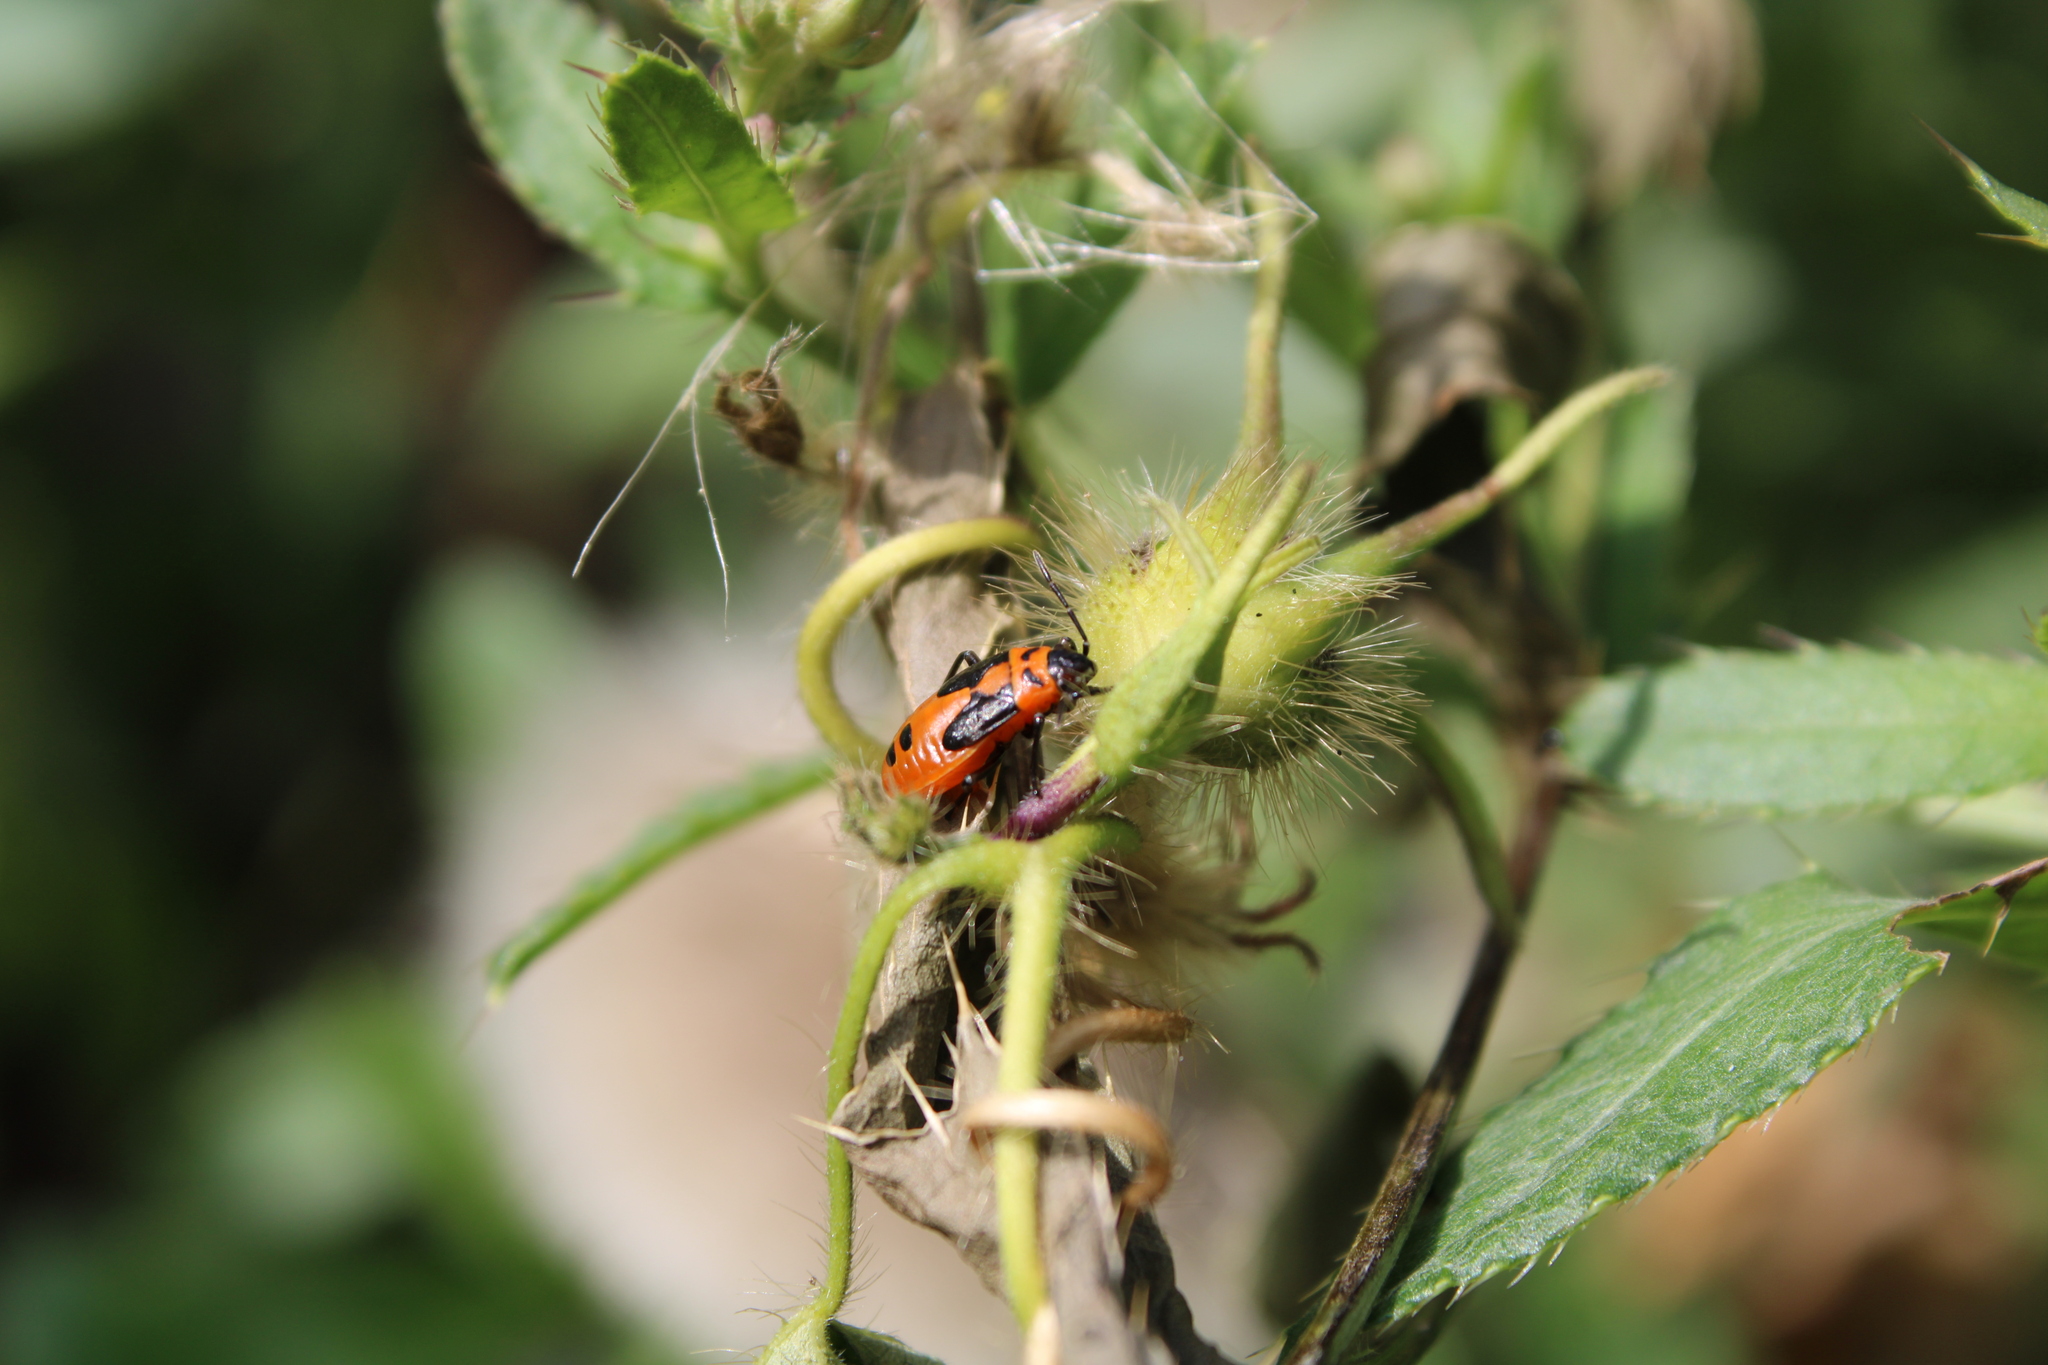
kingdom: Animalia
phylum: Arthropoda
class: Insecta
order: Hemiptera
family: Lygaeidae
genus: Lygaeus
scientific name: Lygaeus turcicus
